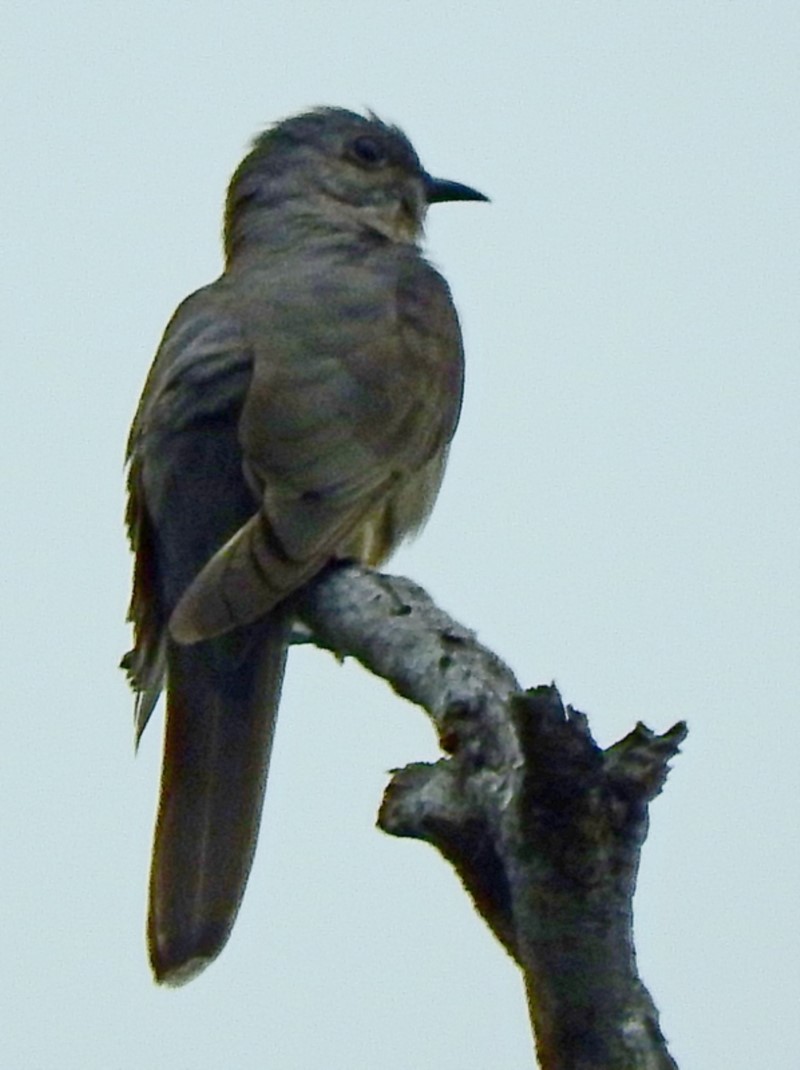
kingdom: Animalia
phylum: Chordata
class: Aves
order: Cuculiformes
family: Cuculidae
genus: Cacomantis
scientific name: Cacomantis variolosus
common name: Brush cuckoo
